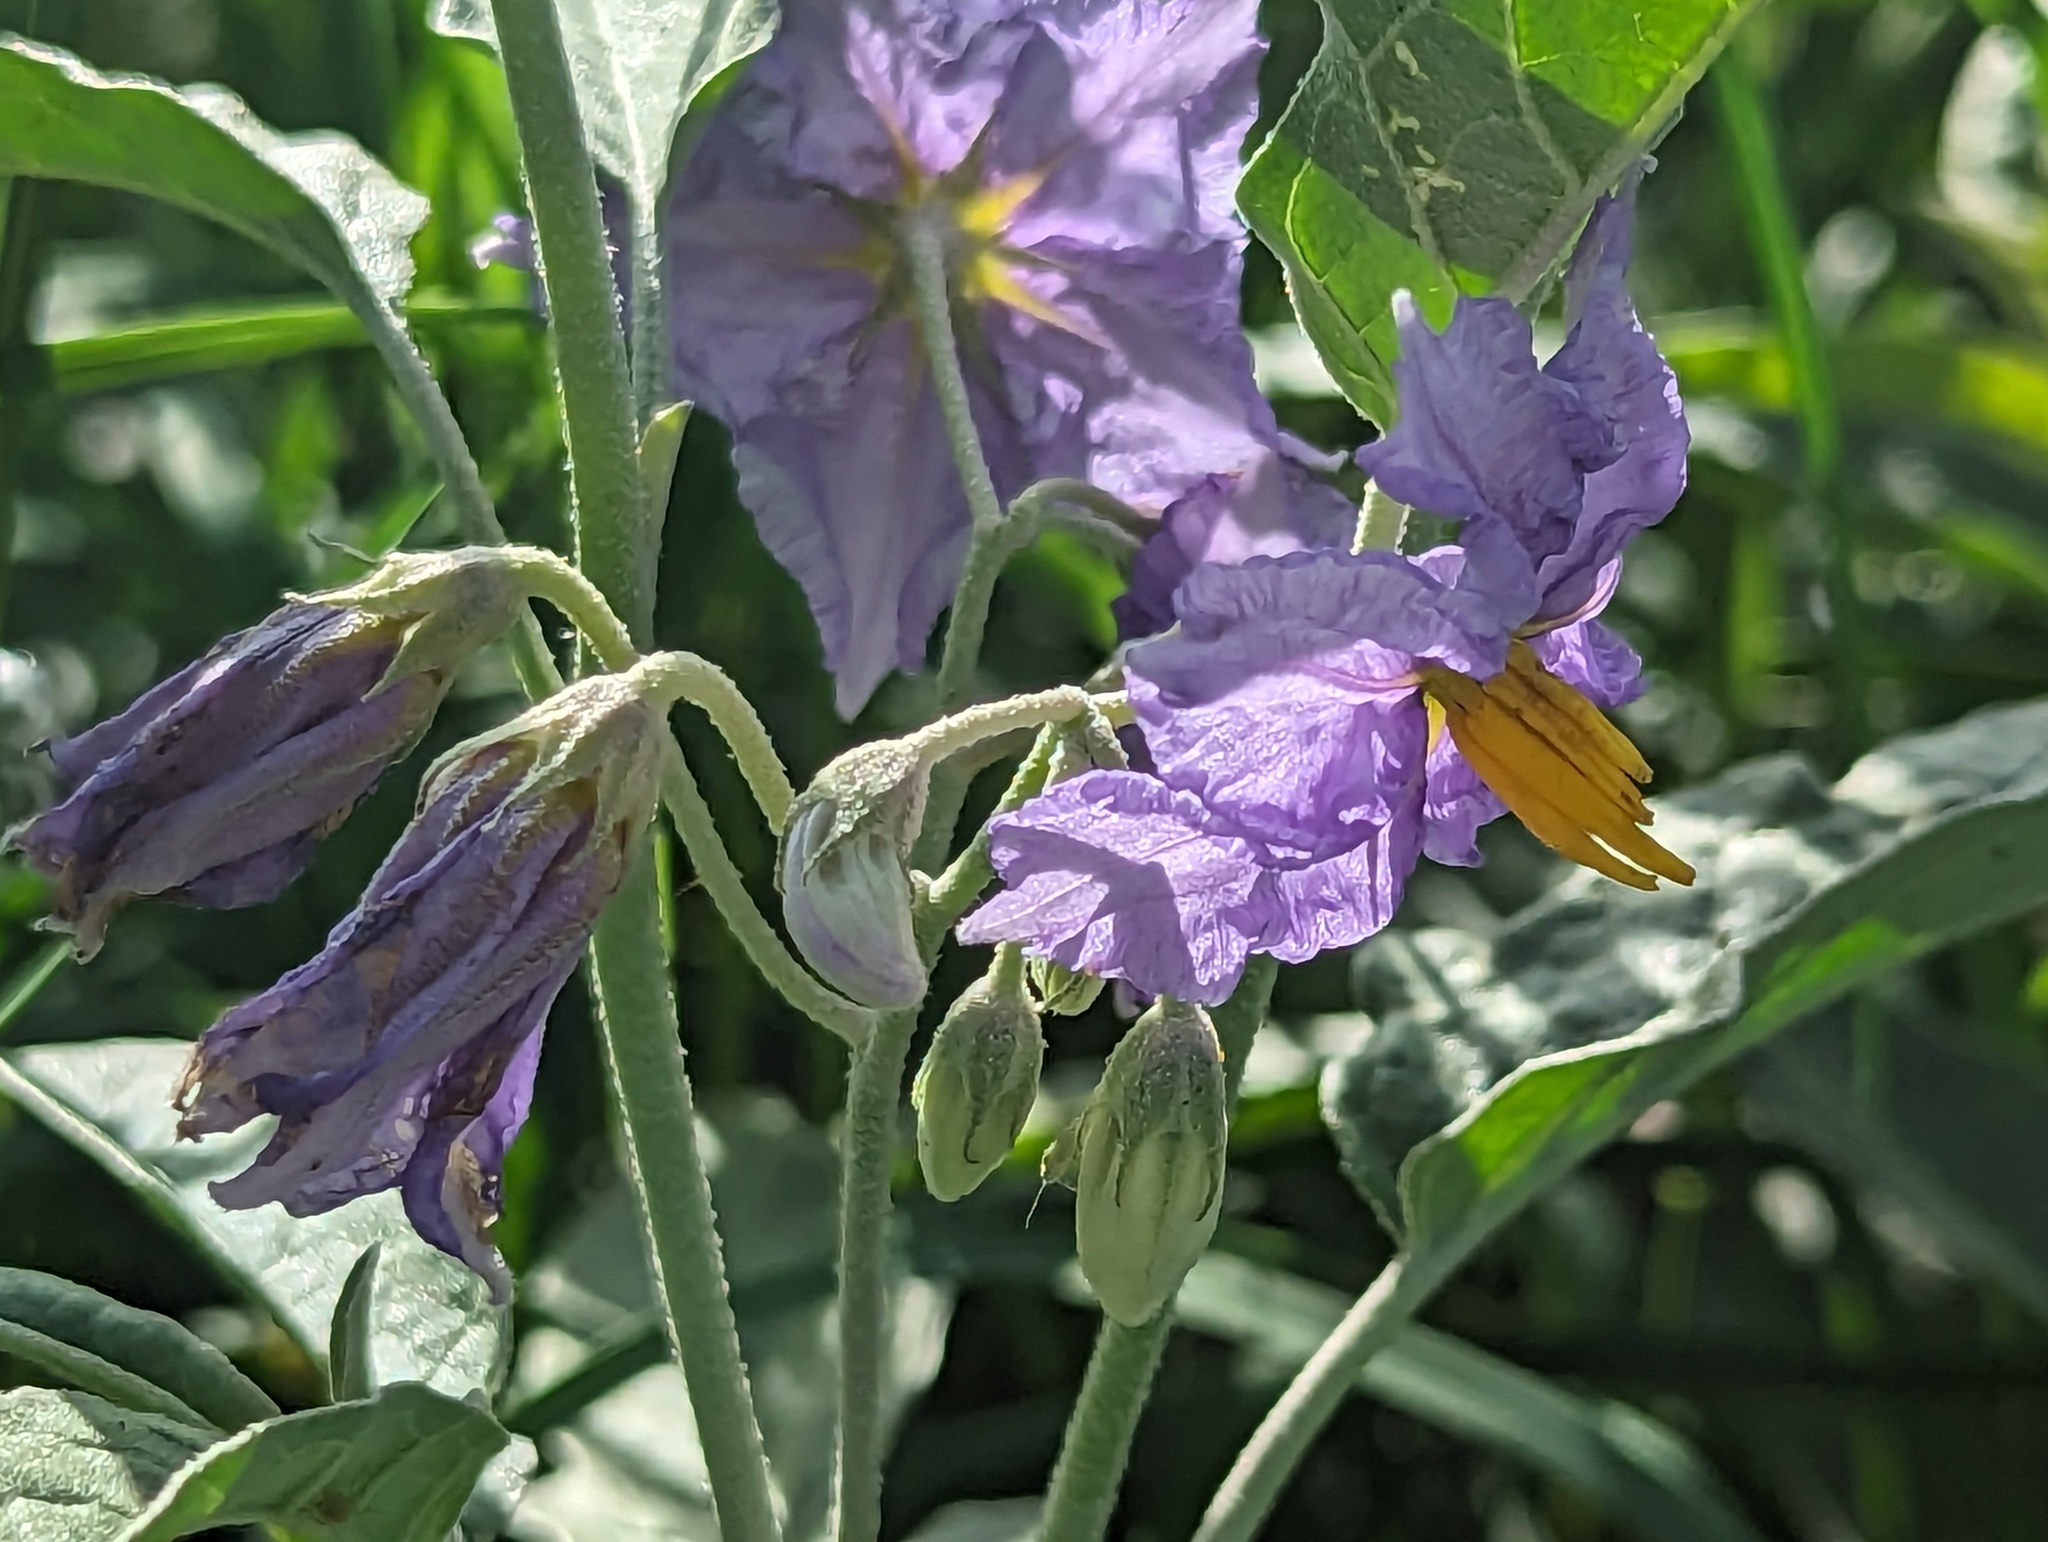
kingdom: Plantae
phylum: Tracheophyta
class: Magnoliopsida
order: Solanales
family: Solanaceae
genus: Solanum
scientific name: Solanum elaeagnifolium
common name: Silverleaf nightshade
